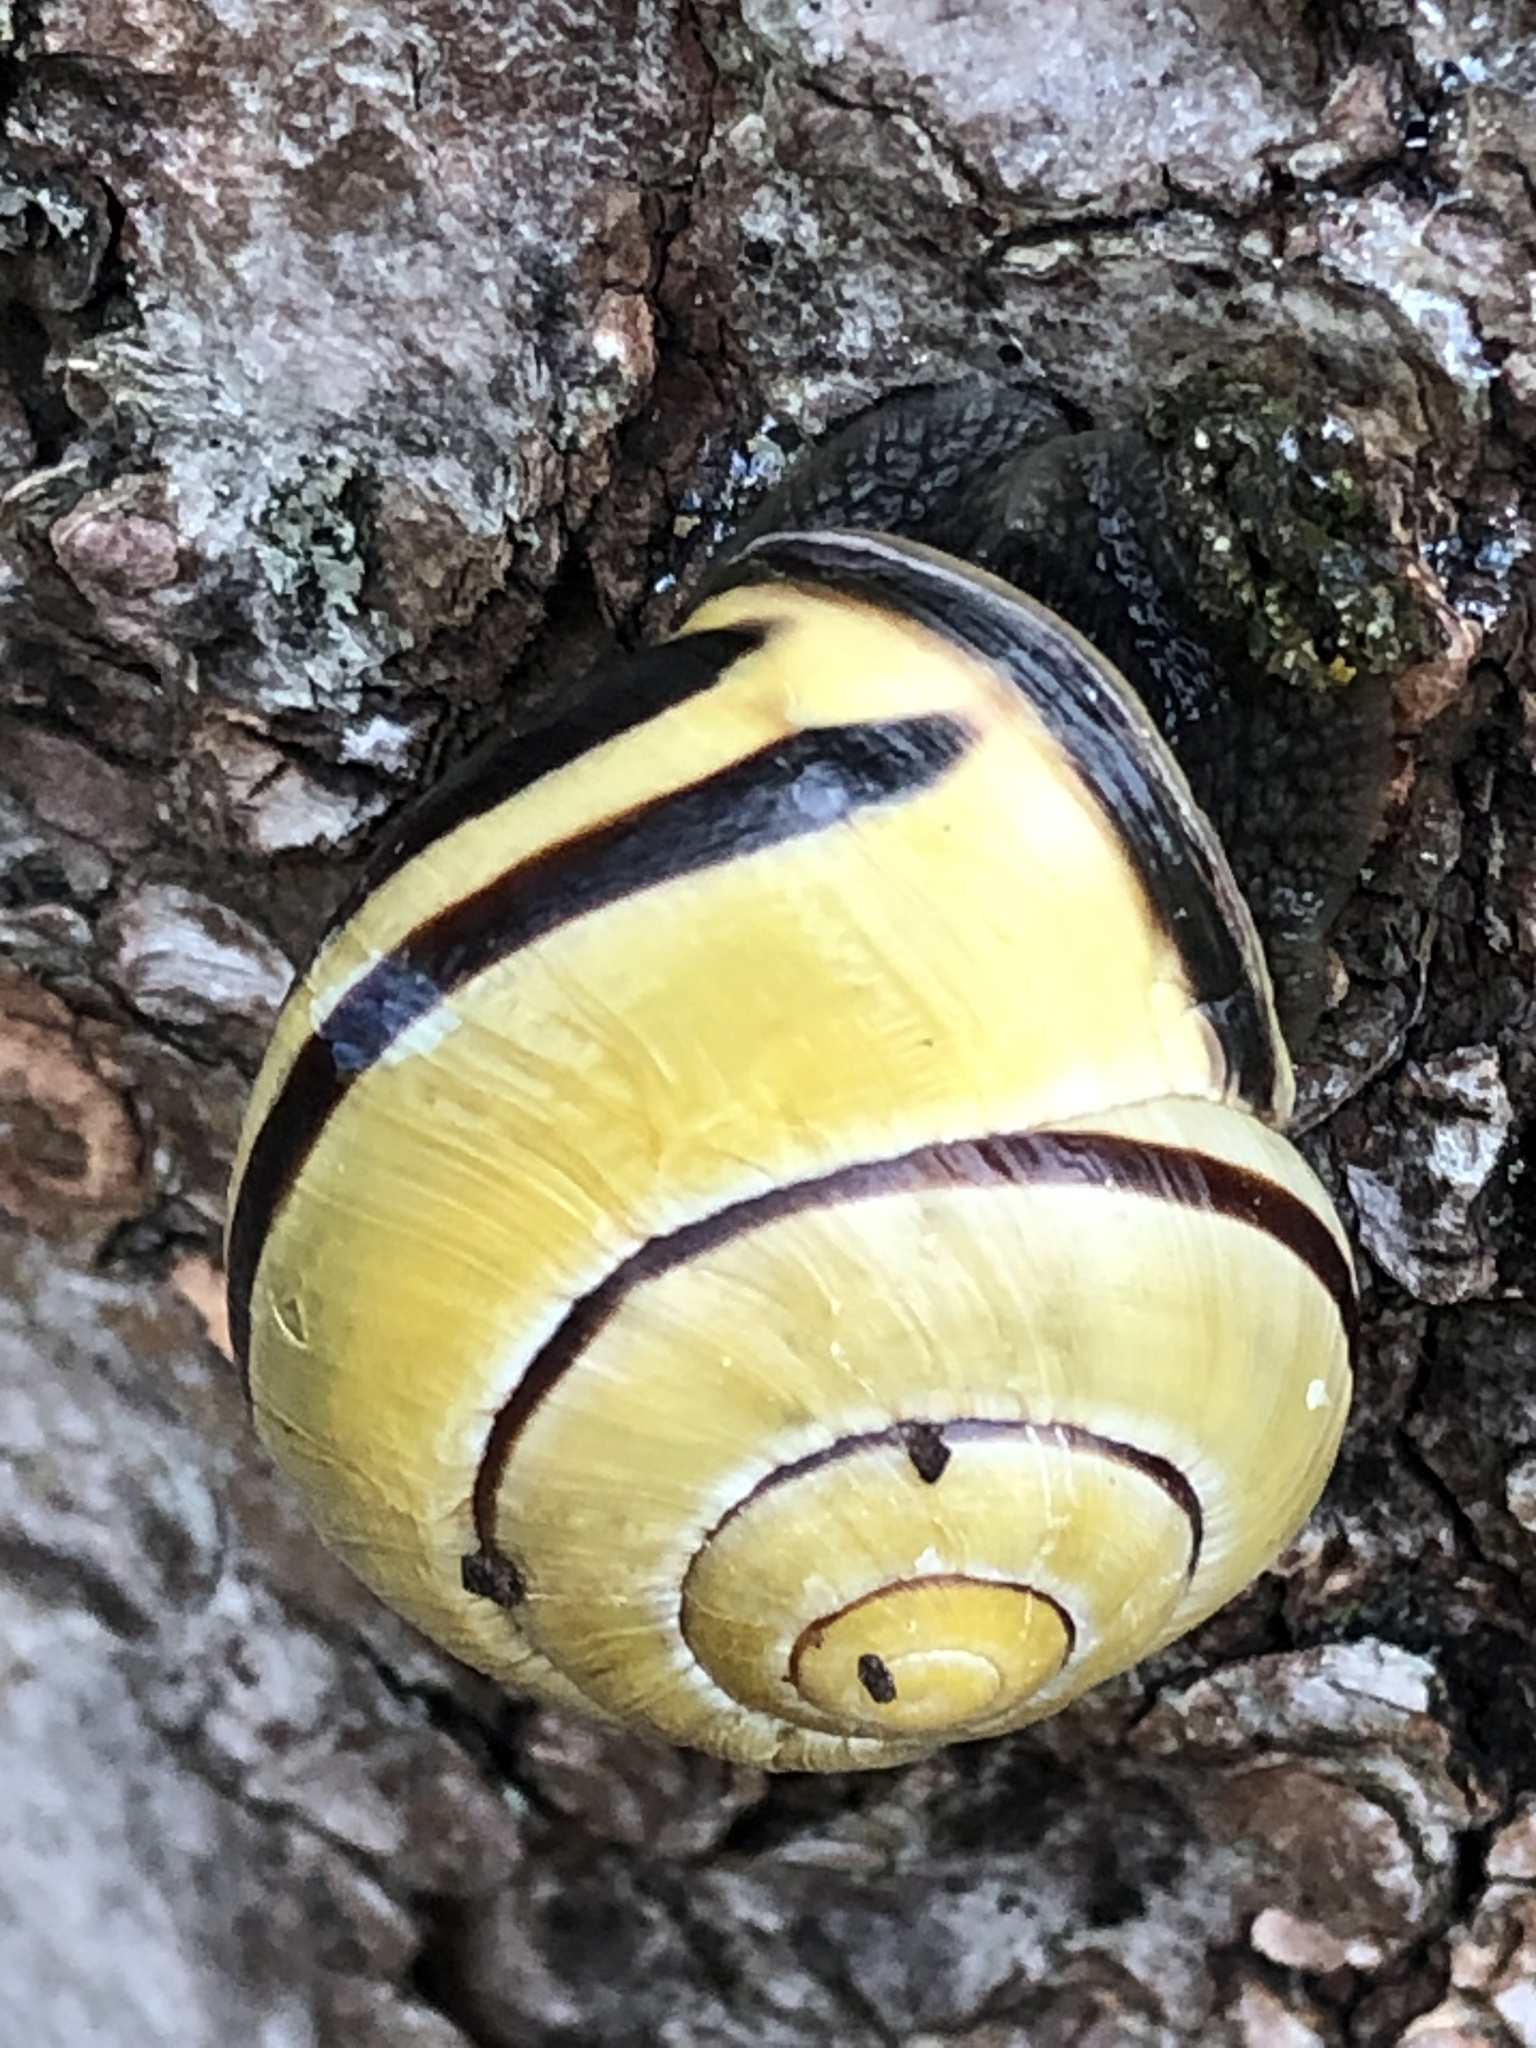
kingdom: Animalia
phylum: Mollusca
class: Gastropoda
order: Stylommatophora
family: Helicidae
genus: Cepaea
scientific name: Cepaea nemoralis
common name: Grovesnail
